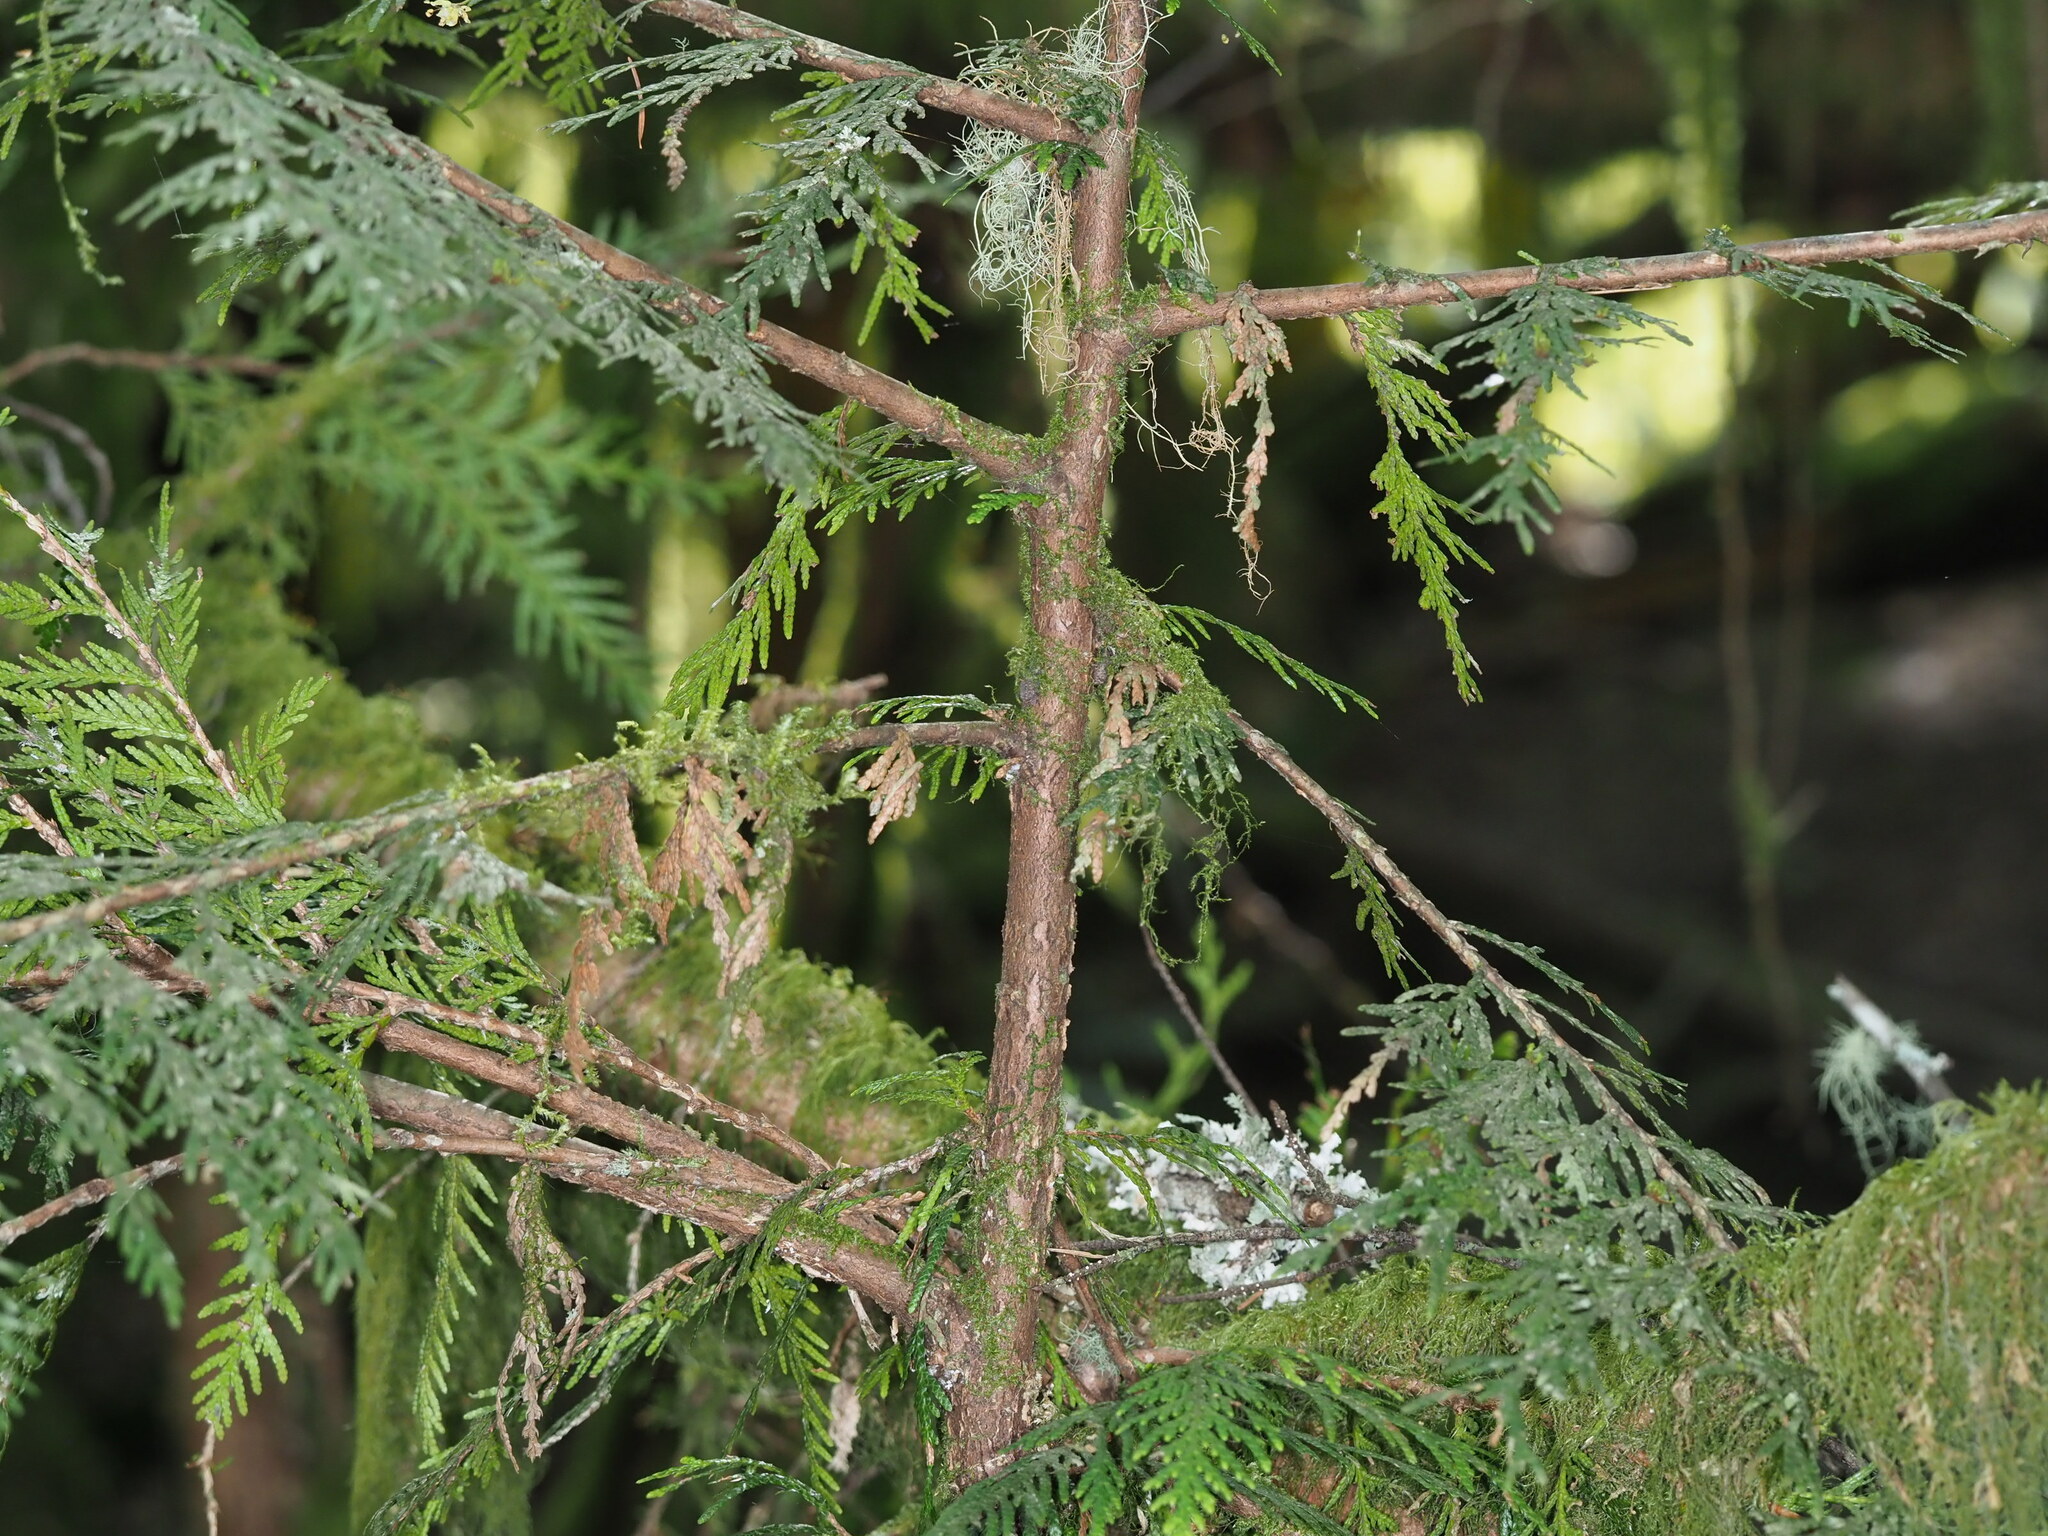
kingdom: Plantae
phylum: Tracheophyta
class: Pinopsida
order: Pinales
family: Cupressaceae
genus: Thuja
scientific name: Thuja plicata
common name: Western red-cedar
